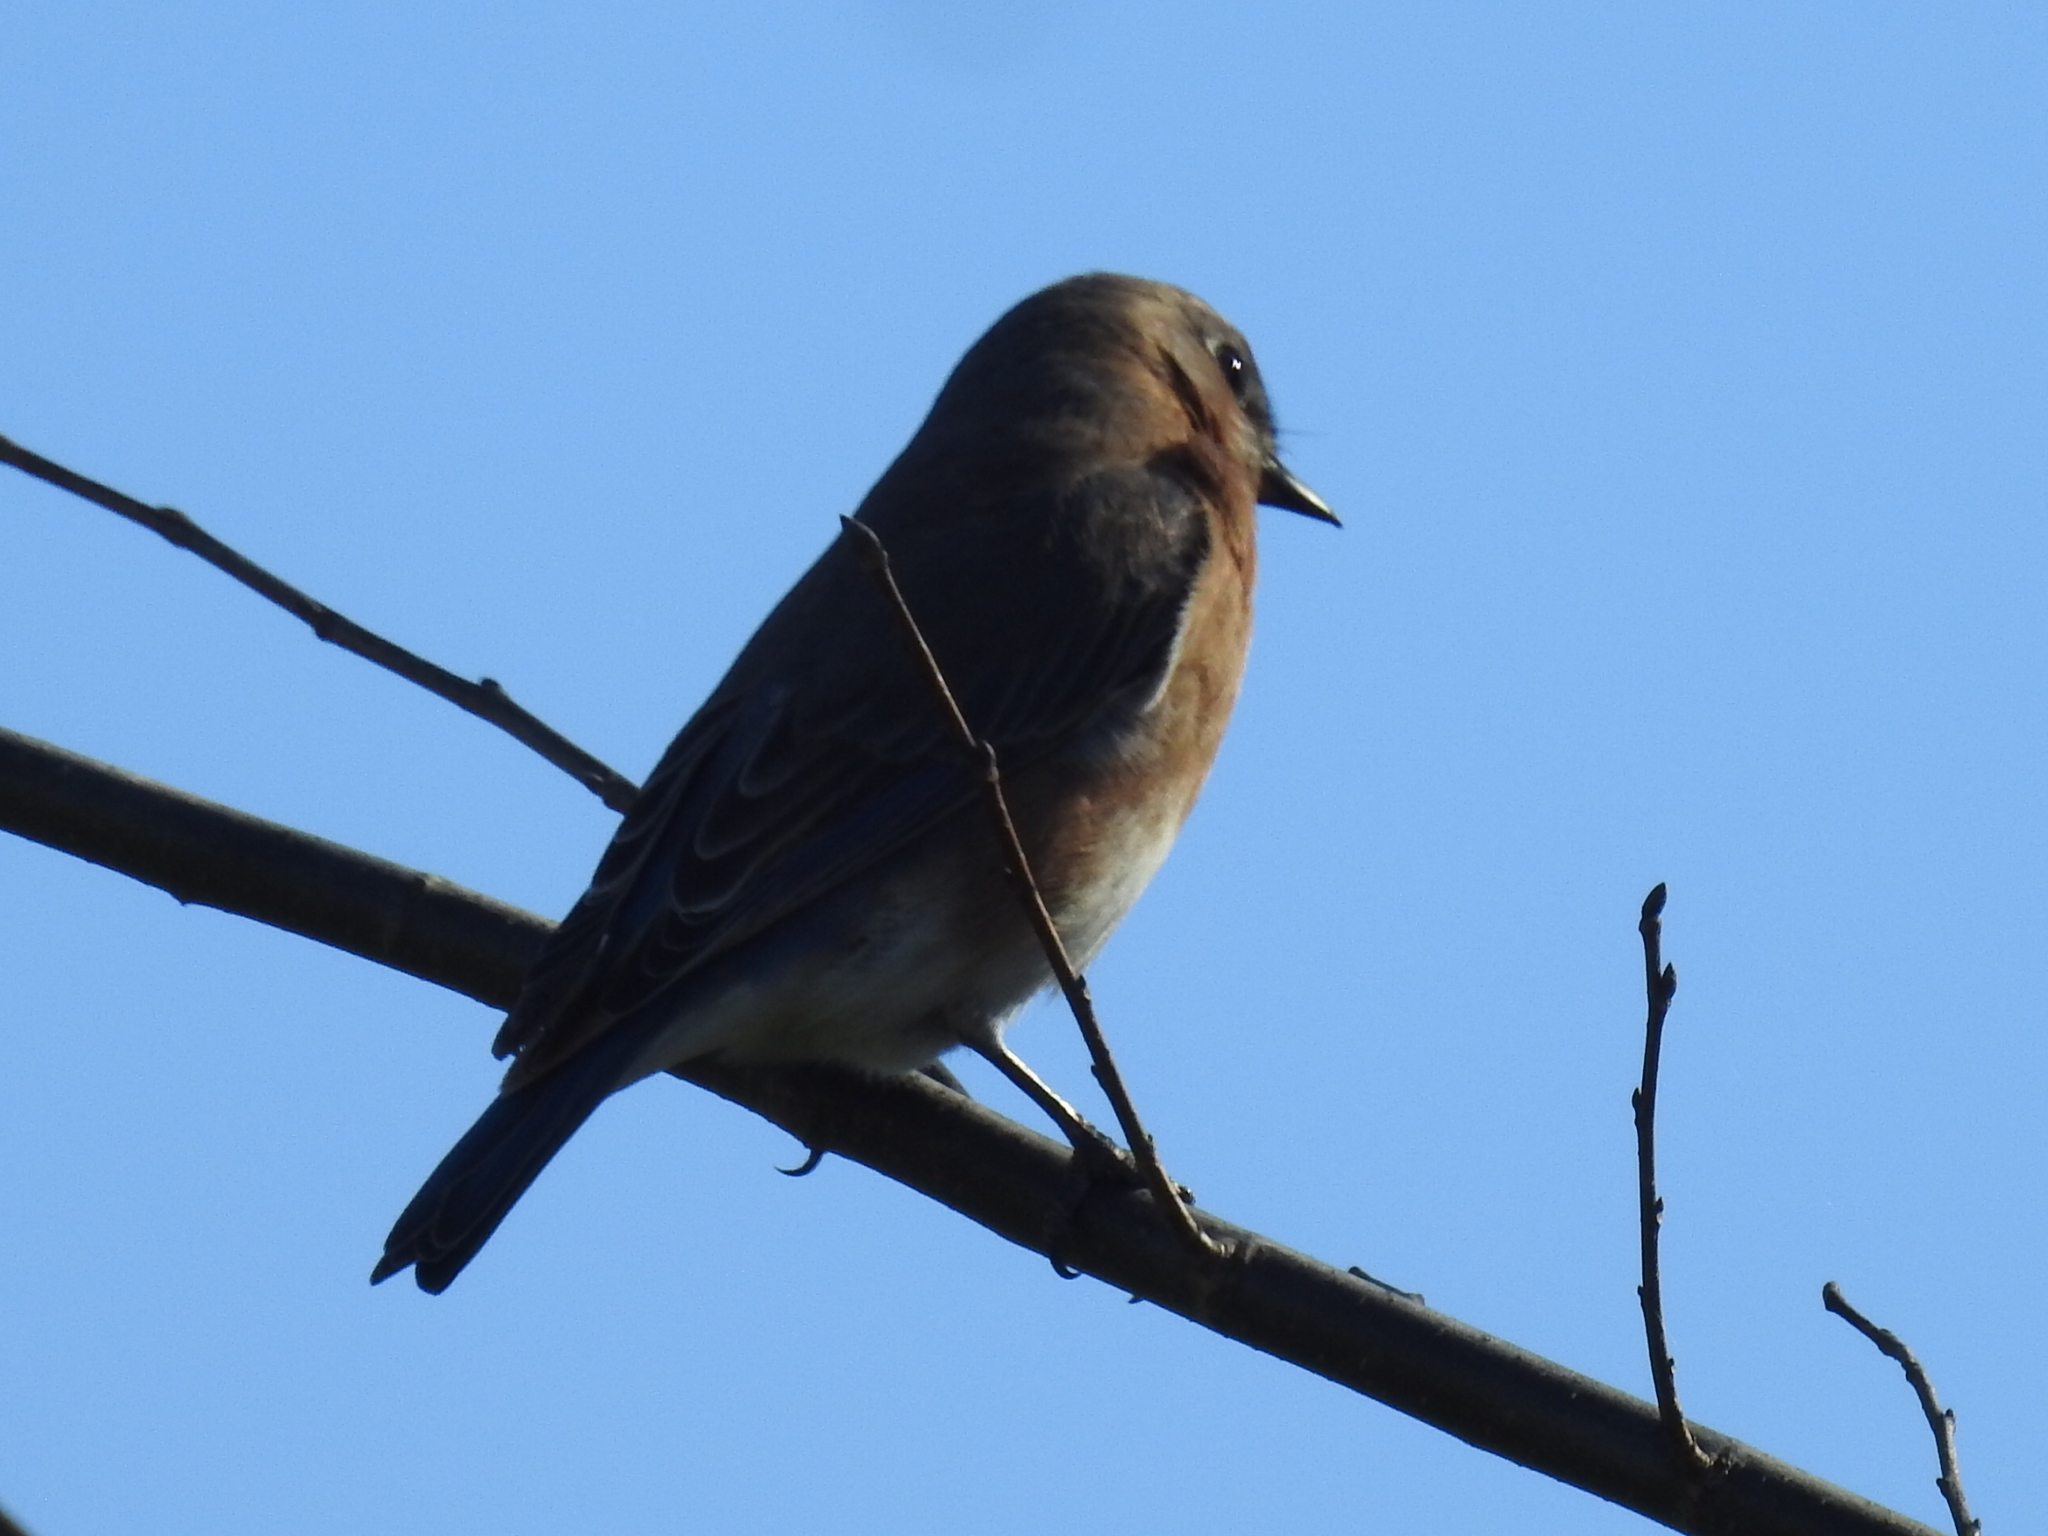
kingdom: Animalia
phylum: Chordata
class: Aves
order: Passeriformes
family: Turdidae
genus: Sialia
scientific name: Sialia sialis
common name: Eastern bluebird
